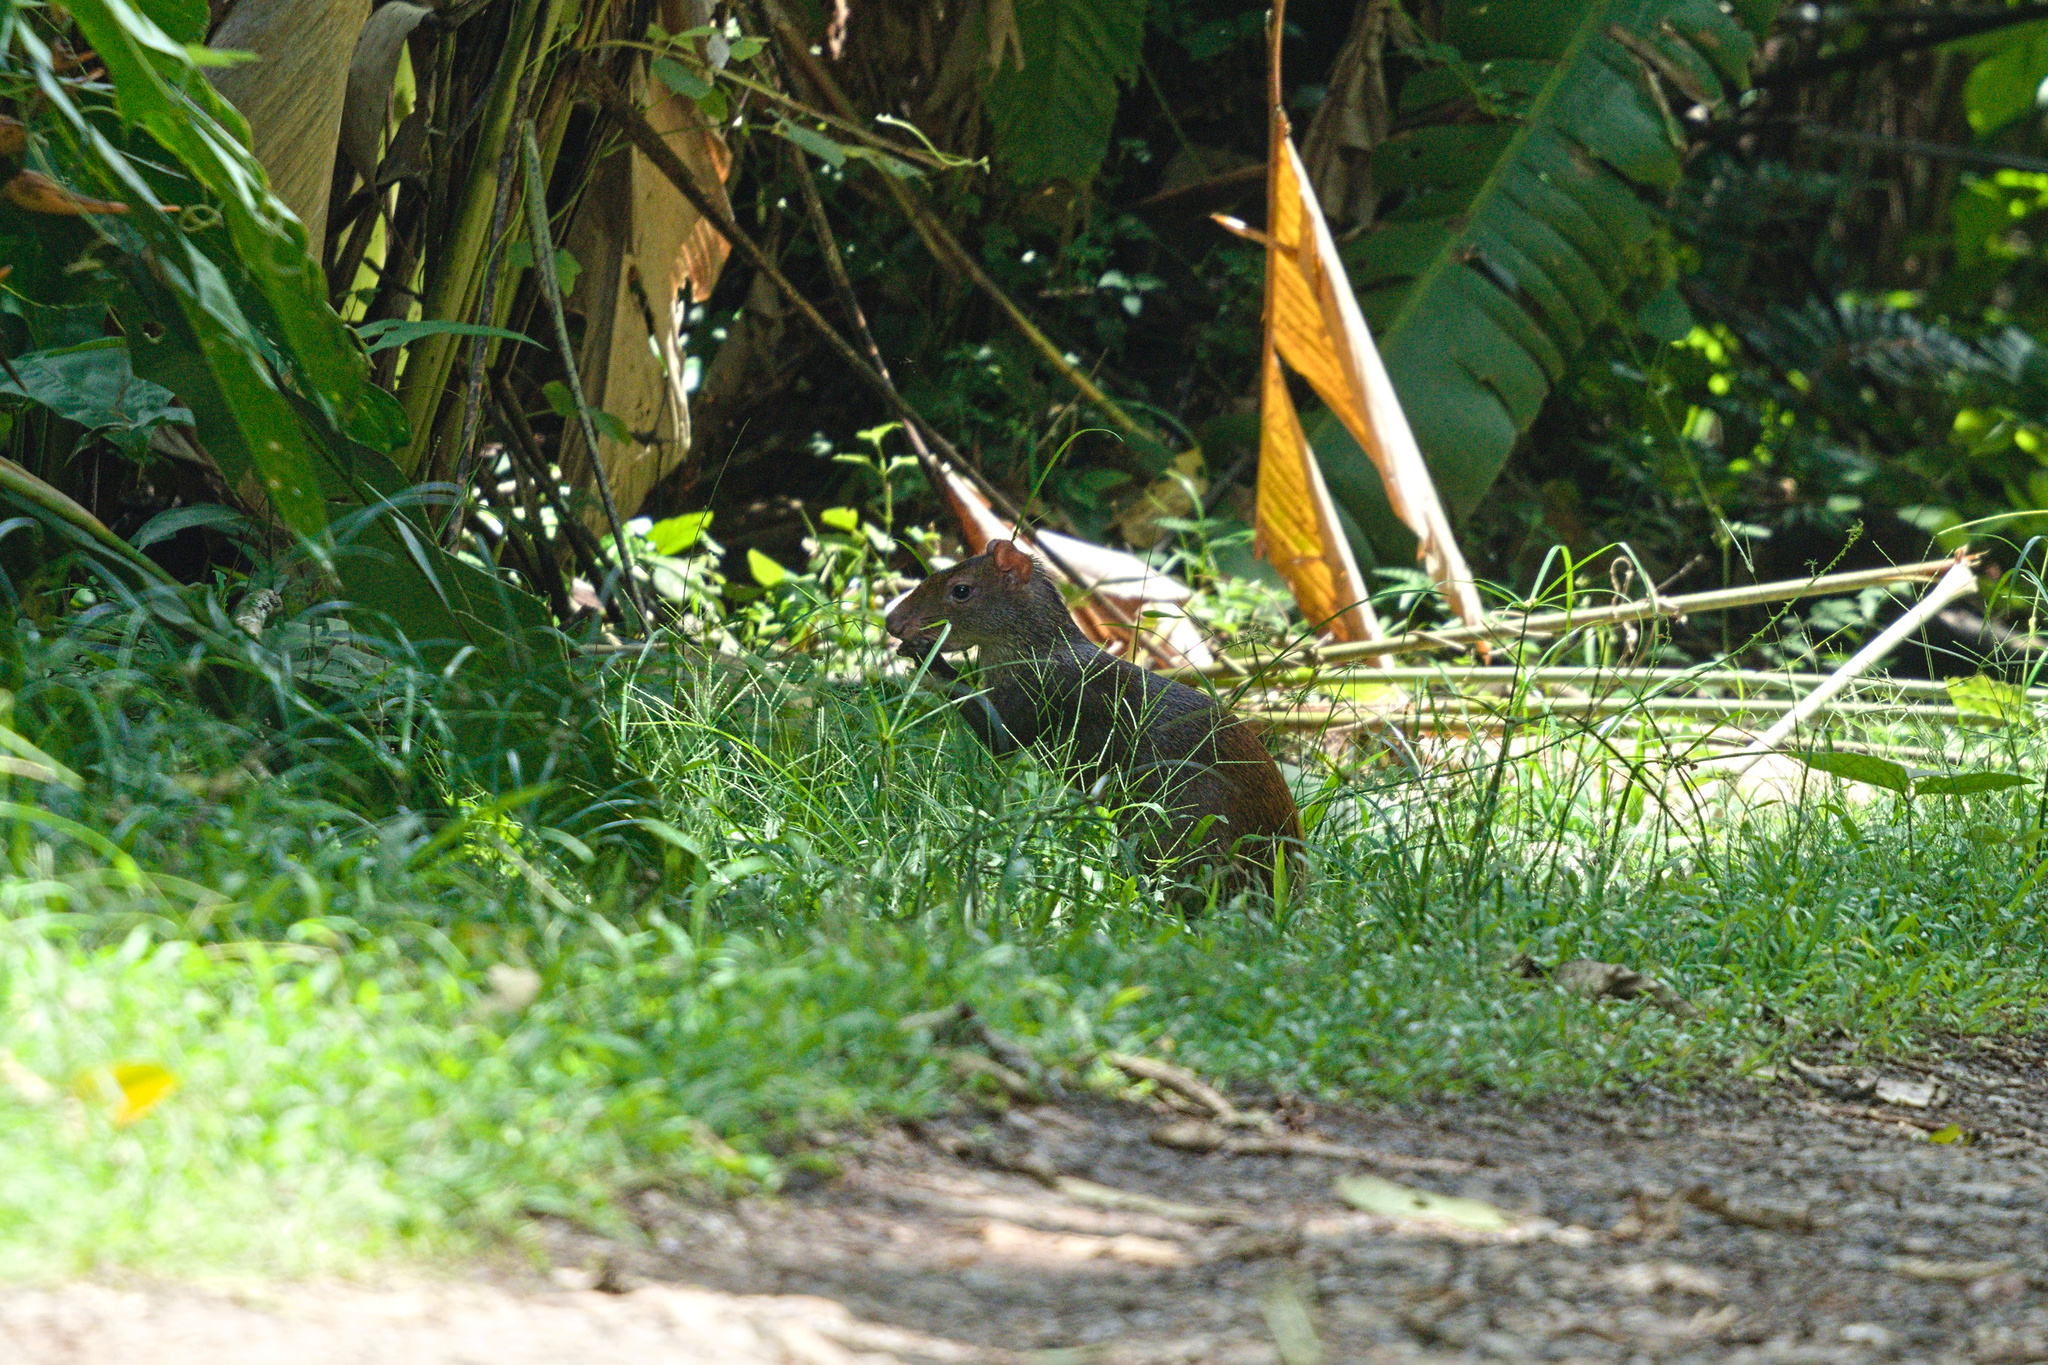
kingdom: Animalia
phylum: Chordata
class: Mammalia
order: Rodentia
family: Dasyproctidae
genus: Dasyprocta
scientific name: Dasyprocta punctata
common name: Central american agouti
